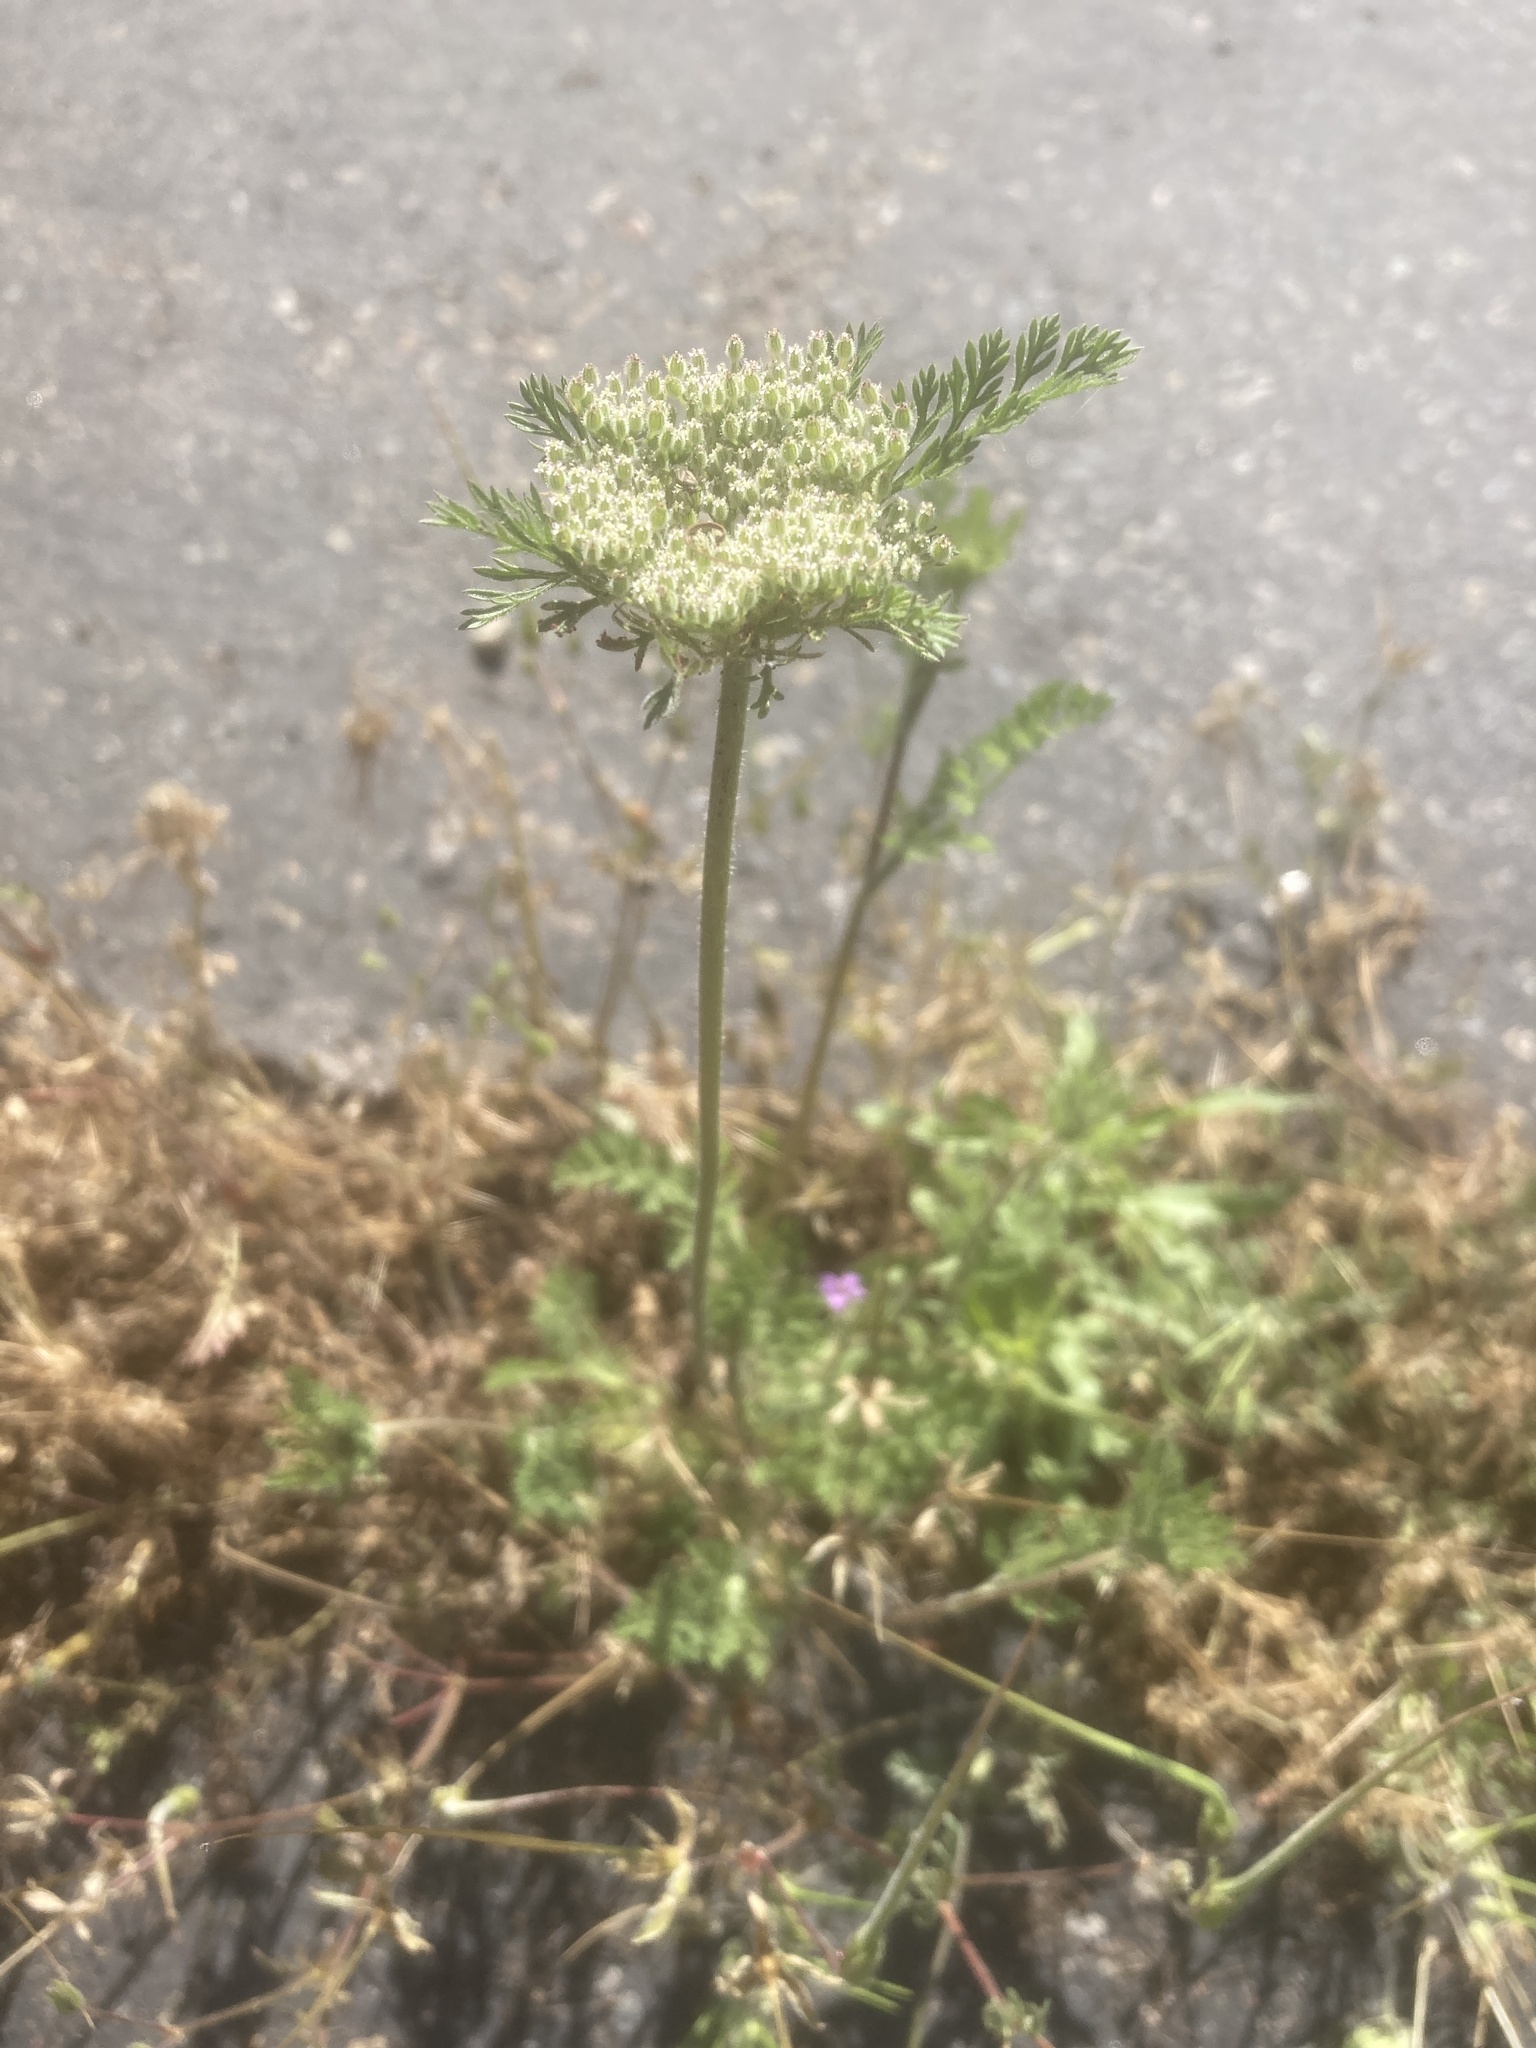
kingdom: Plantae
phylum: Tracheophyta
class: Magnoliopsida
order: Apiales
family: Apiaceae
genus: Daucus
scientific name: Daucus pusillus
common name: Southwest wild carrot
